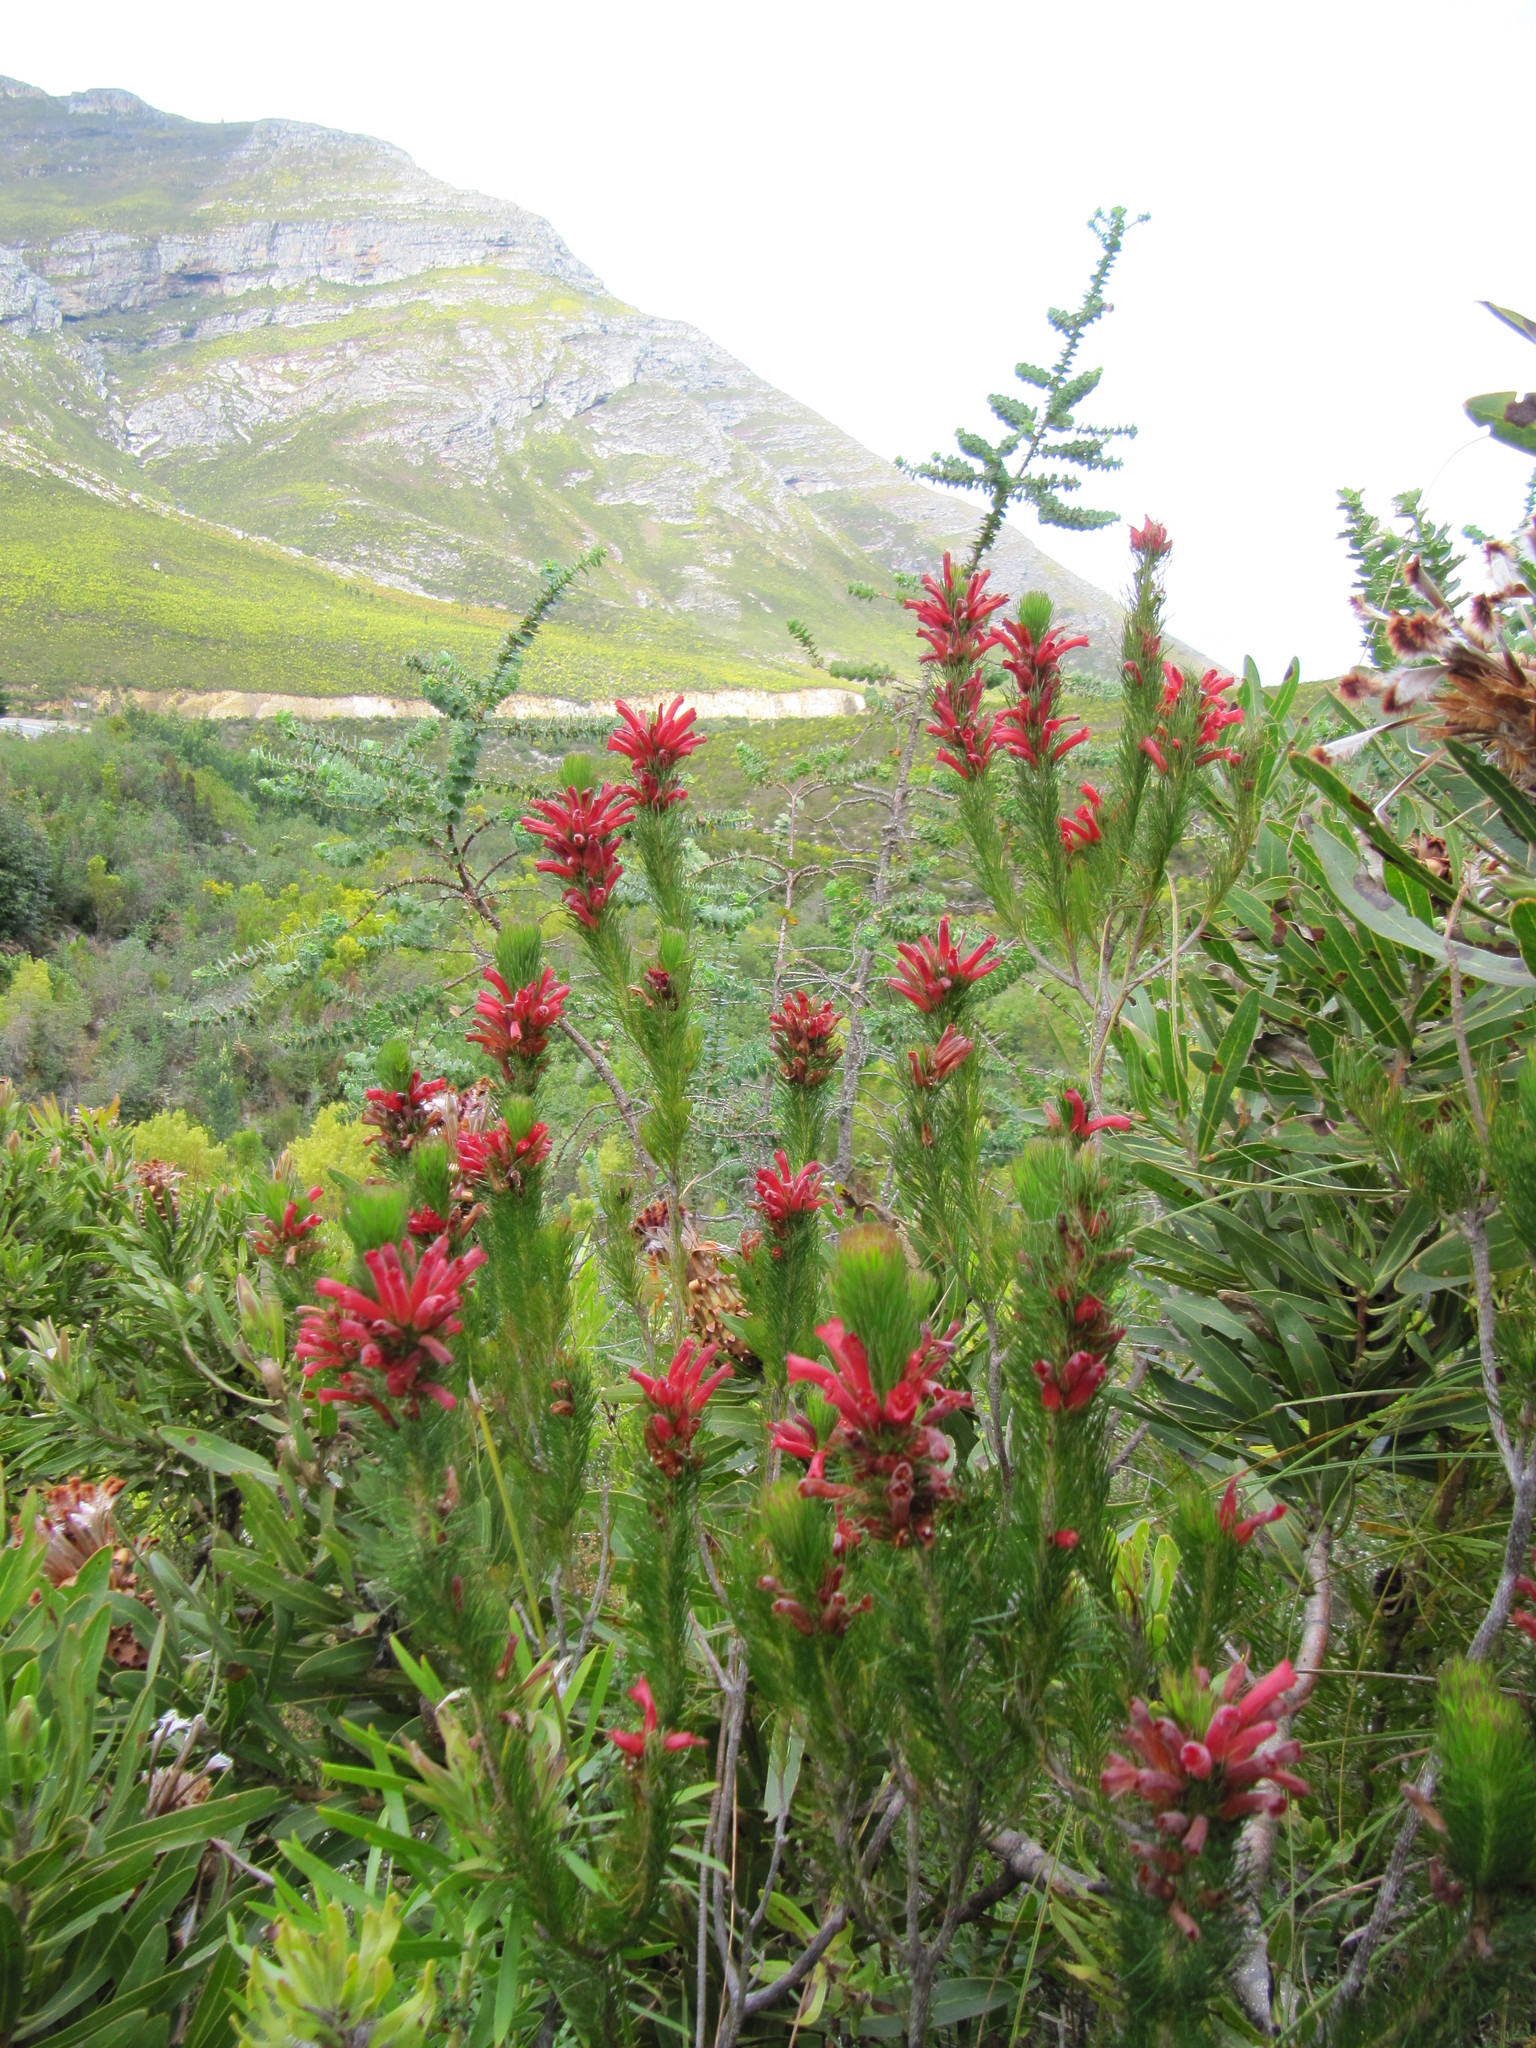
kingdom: Plantae
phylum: Tracheophyta
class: Magnoliopsida
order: Ericales
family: Ericaceae
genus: Erica
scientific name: Erica vestita
